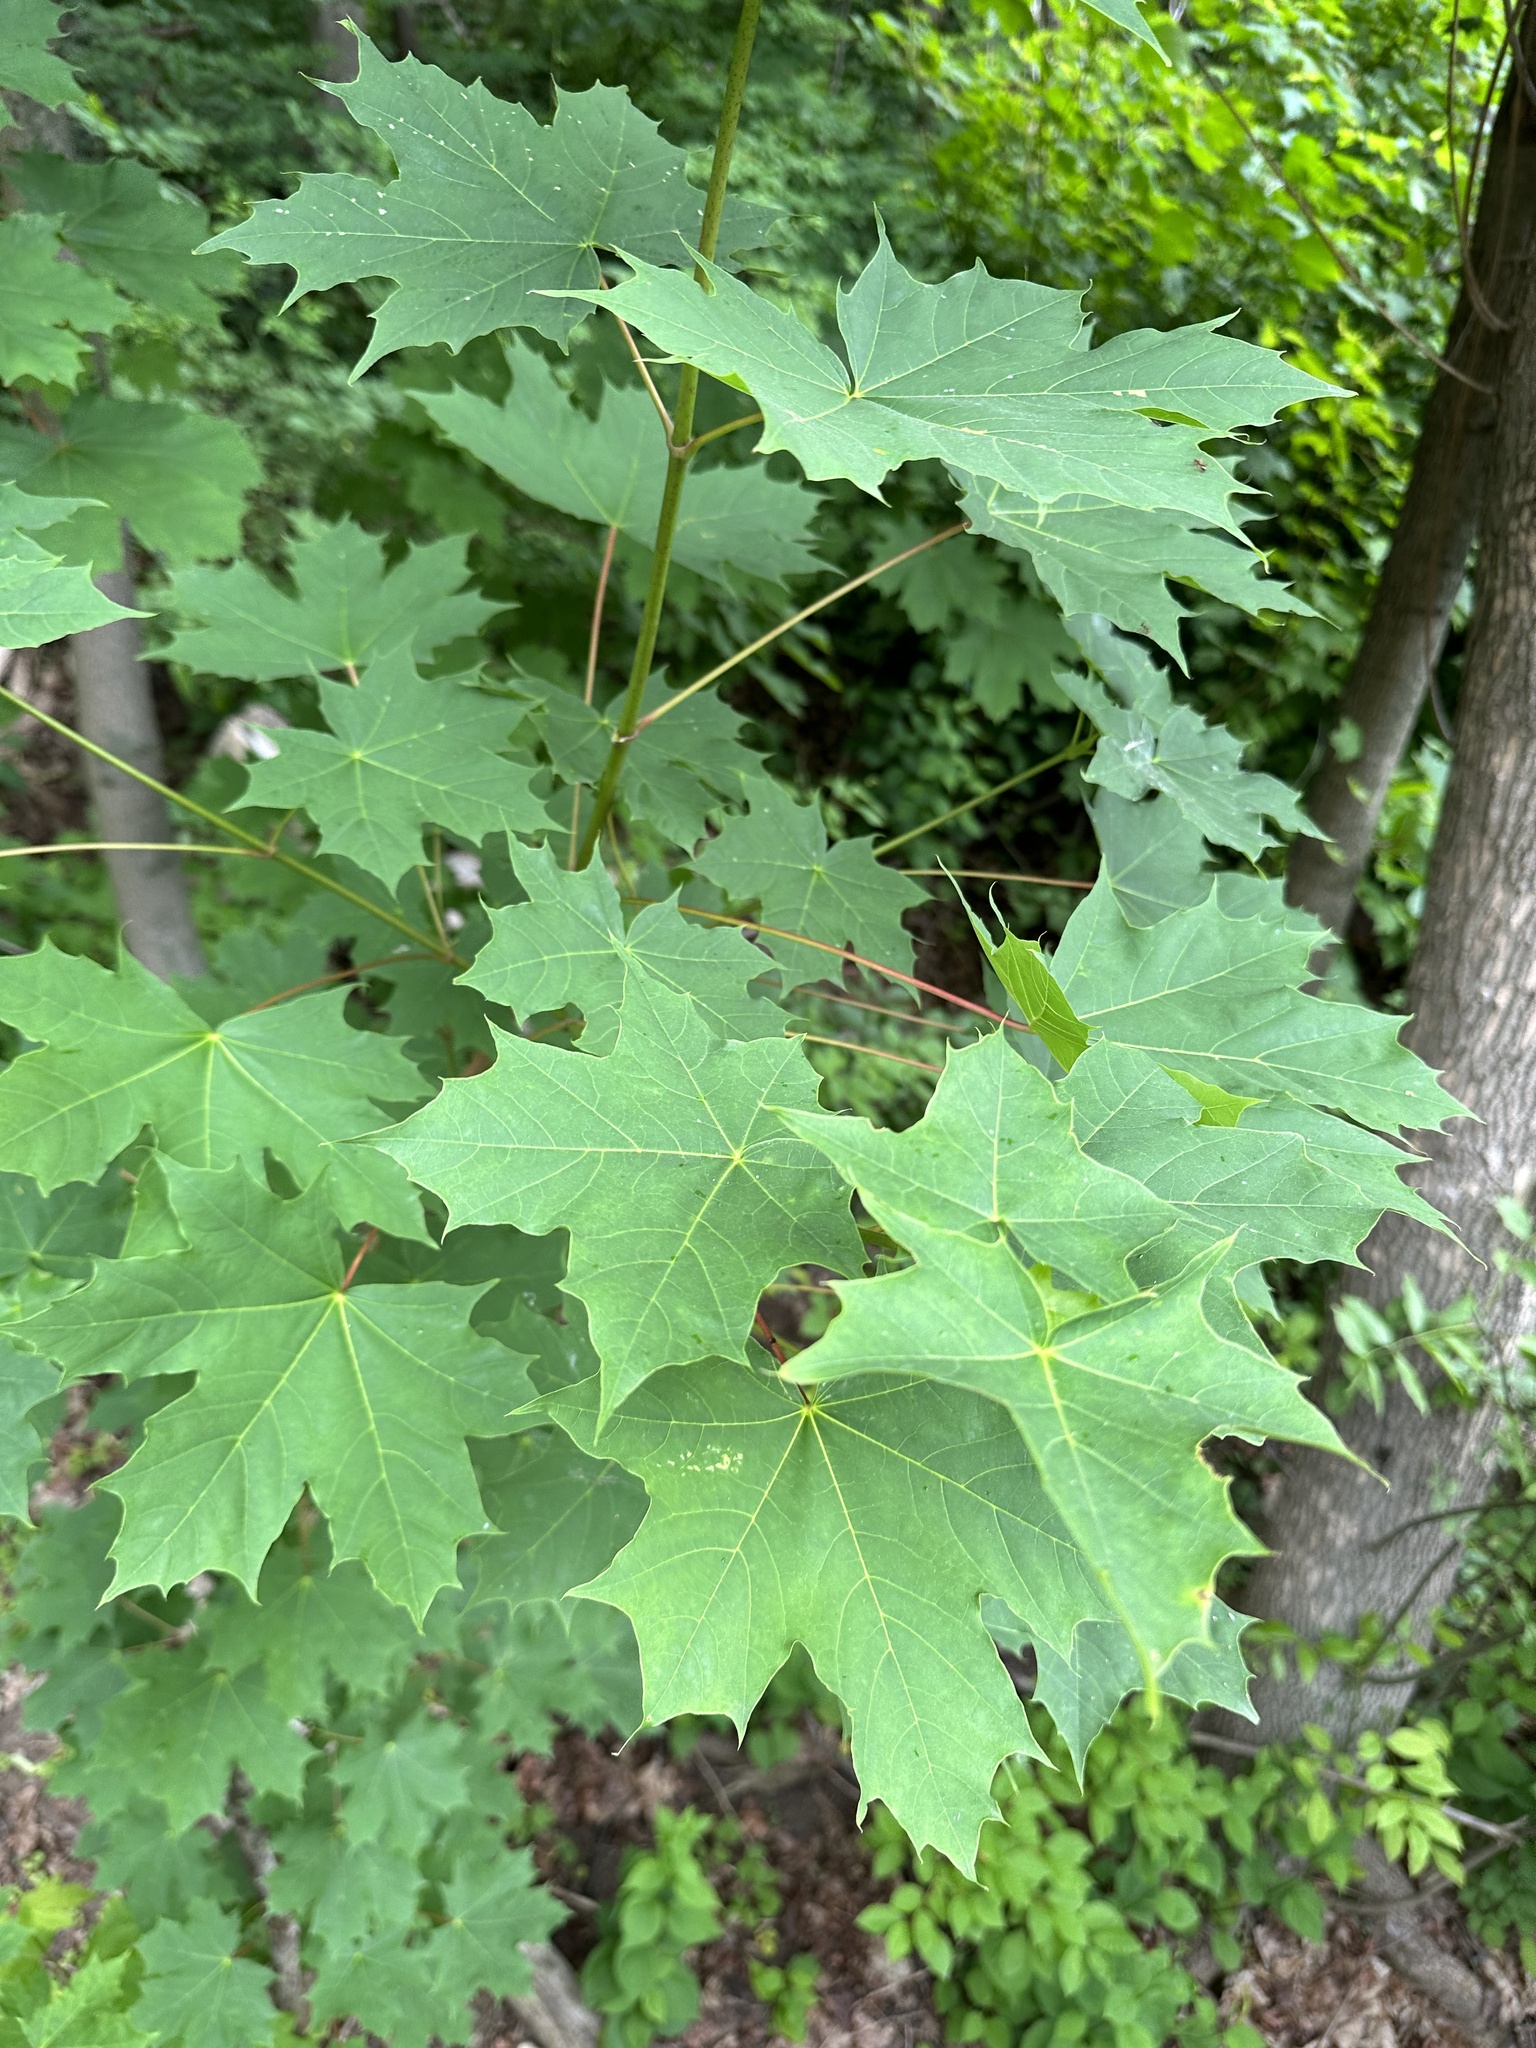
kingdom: Plantae
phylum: Tracheophyta
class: Magnoliopsida
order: Sapindales
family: Sapindaceae
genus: Acer
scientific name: Acer platanoides
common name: Norway maple
